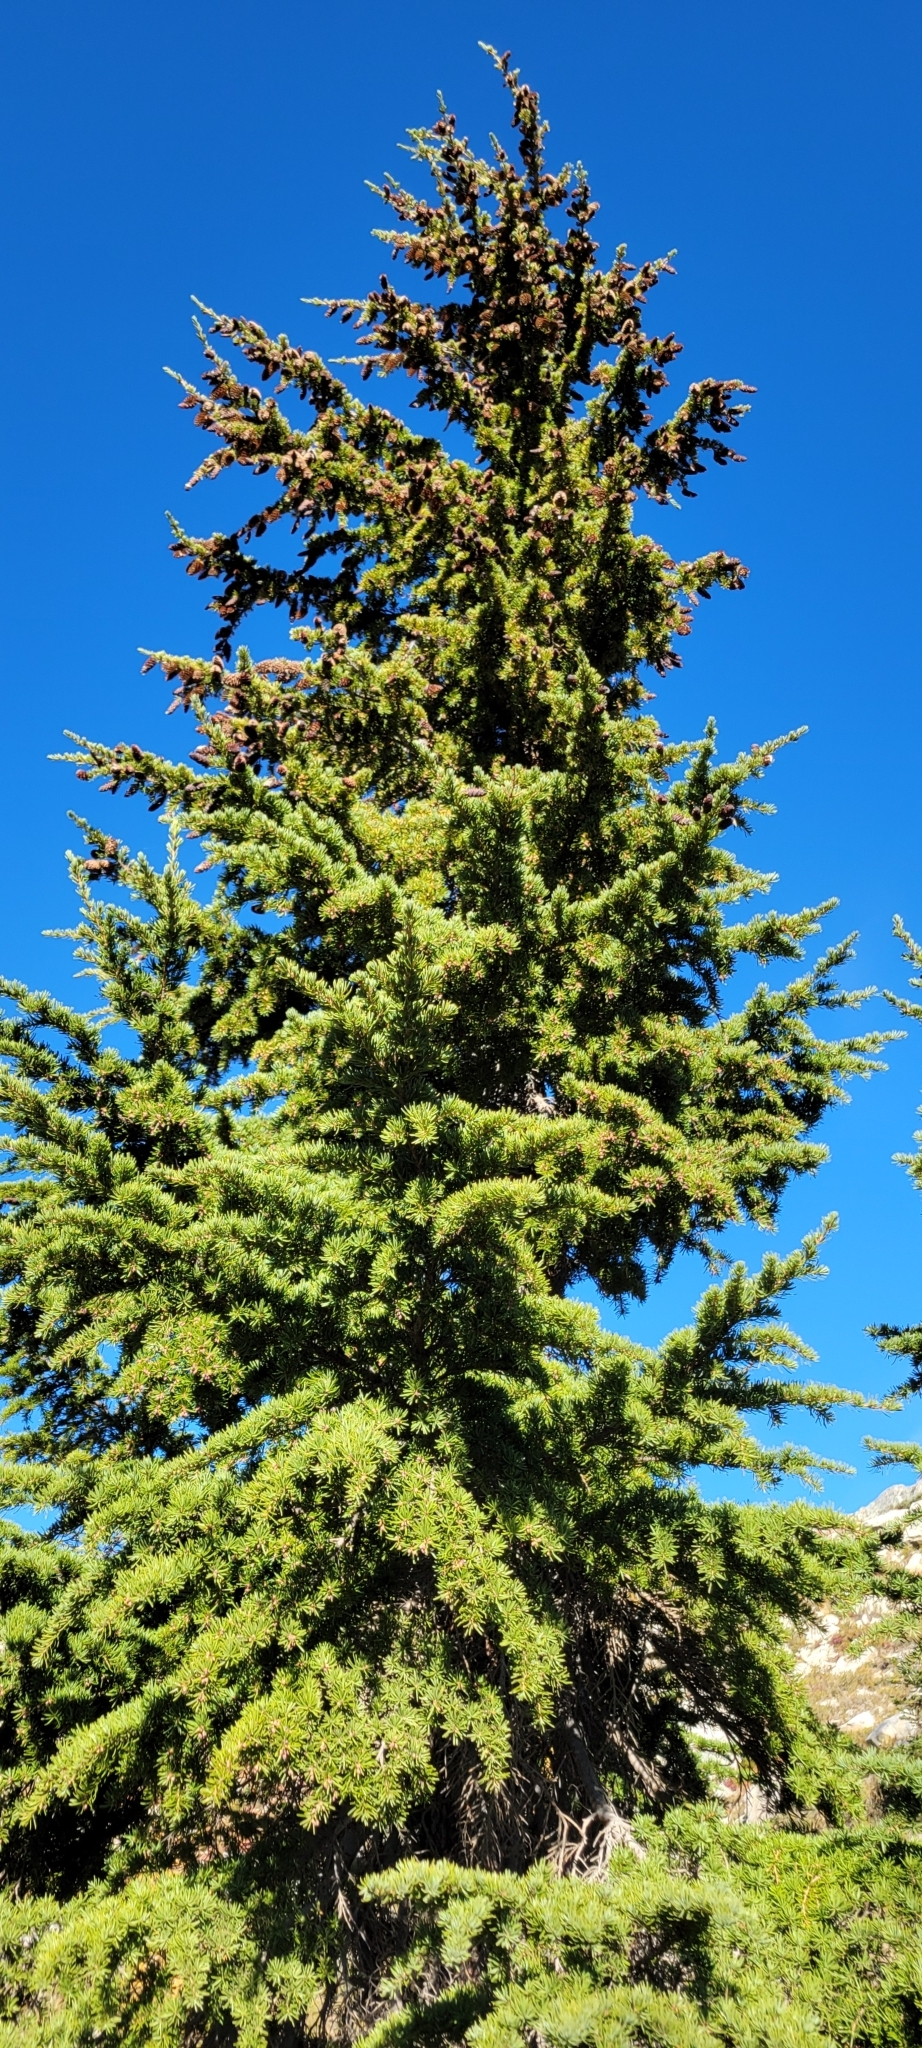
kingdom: Plantae
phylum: Tracheophyta
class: Pinopsida
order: Pinales
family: Pinaceae
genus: Tsuga
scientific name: Tsuga mertensiana
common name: Mountain hemlock
